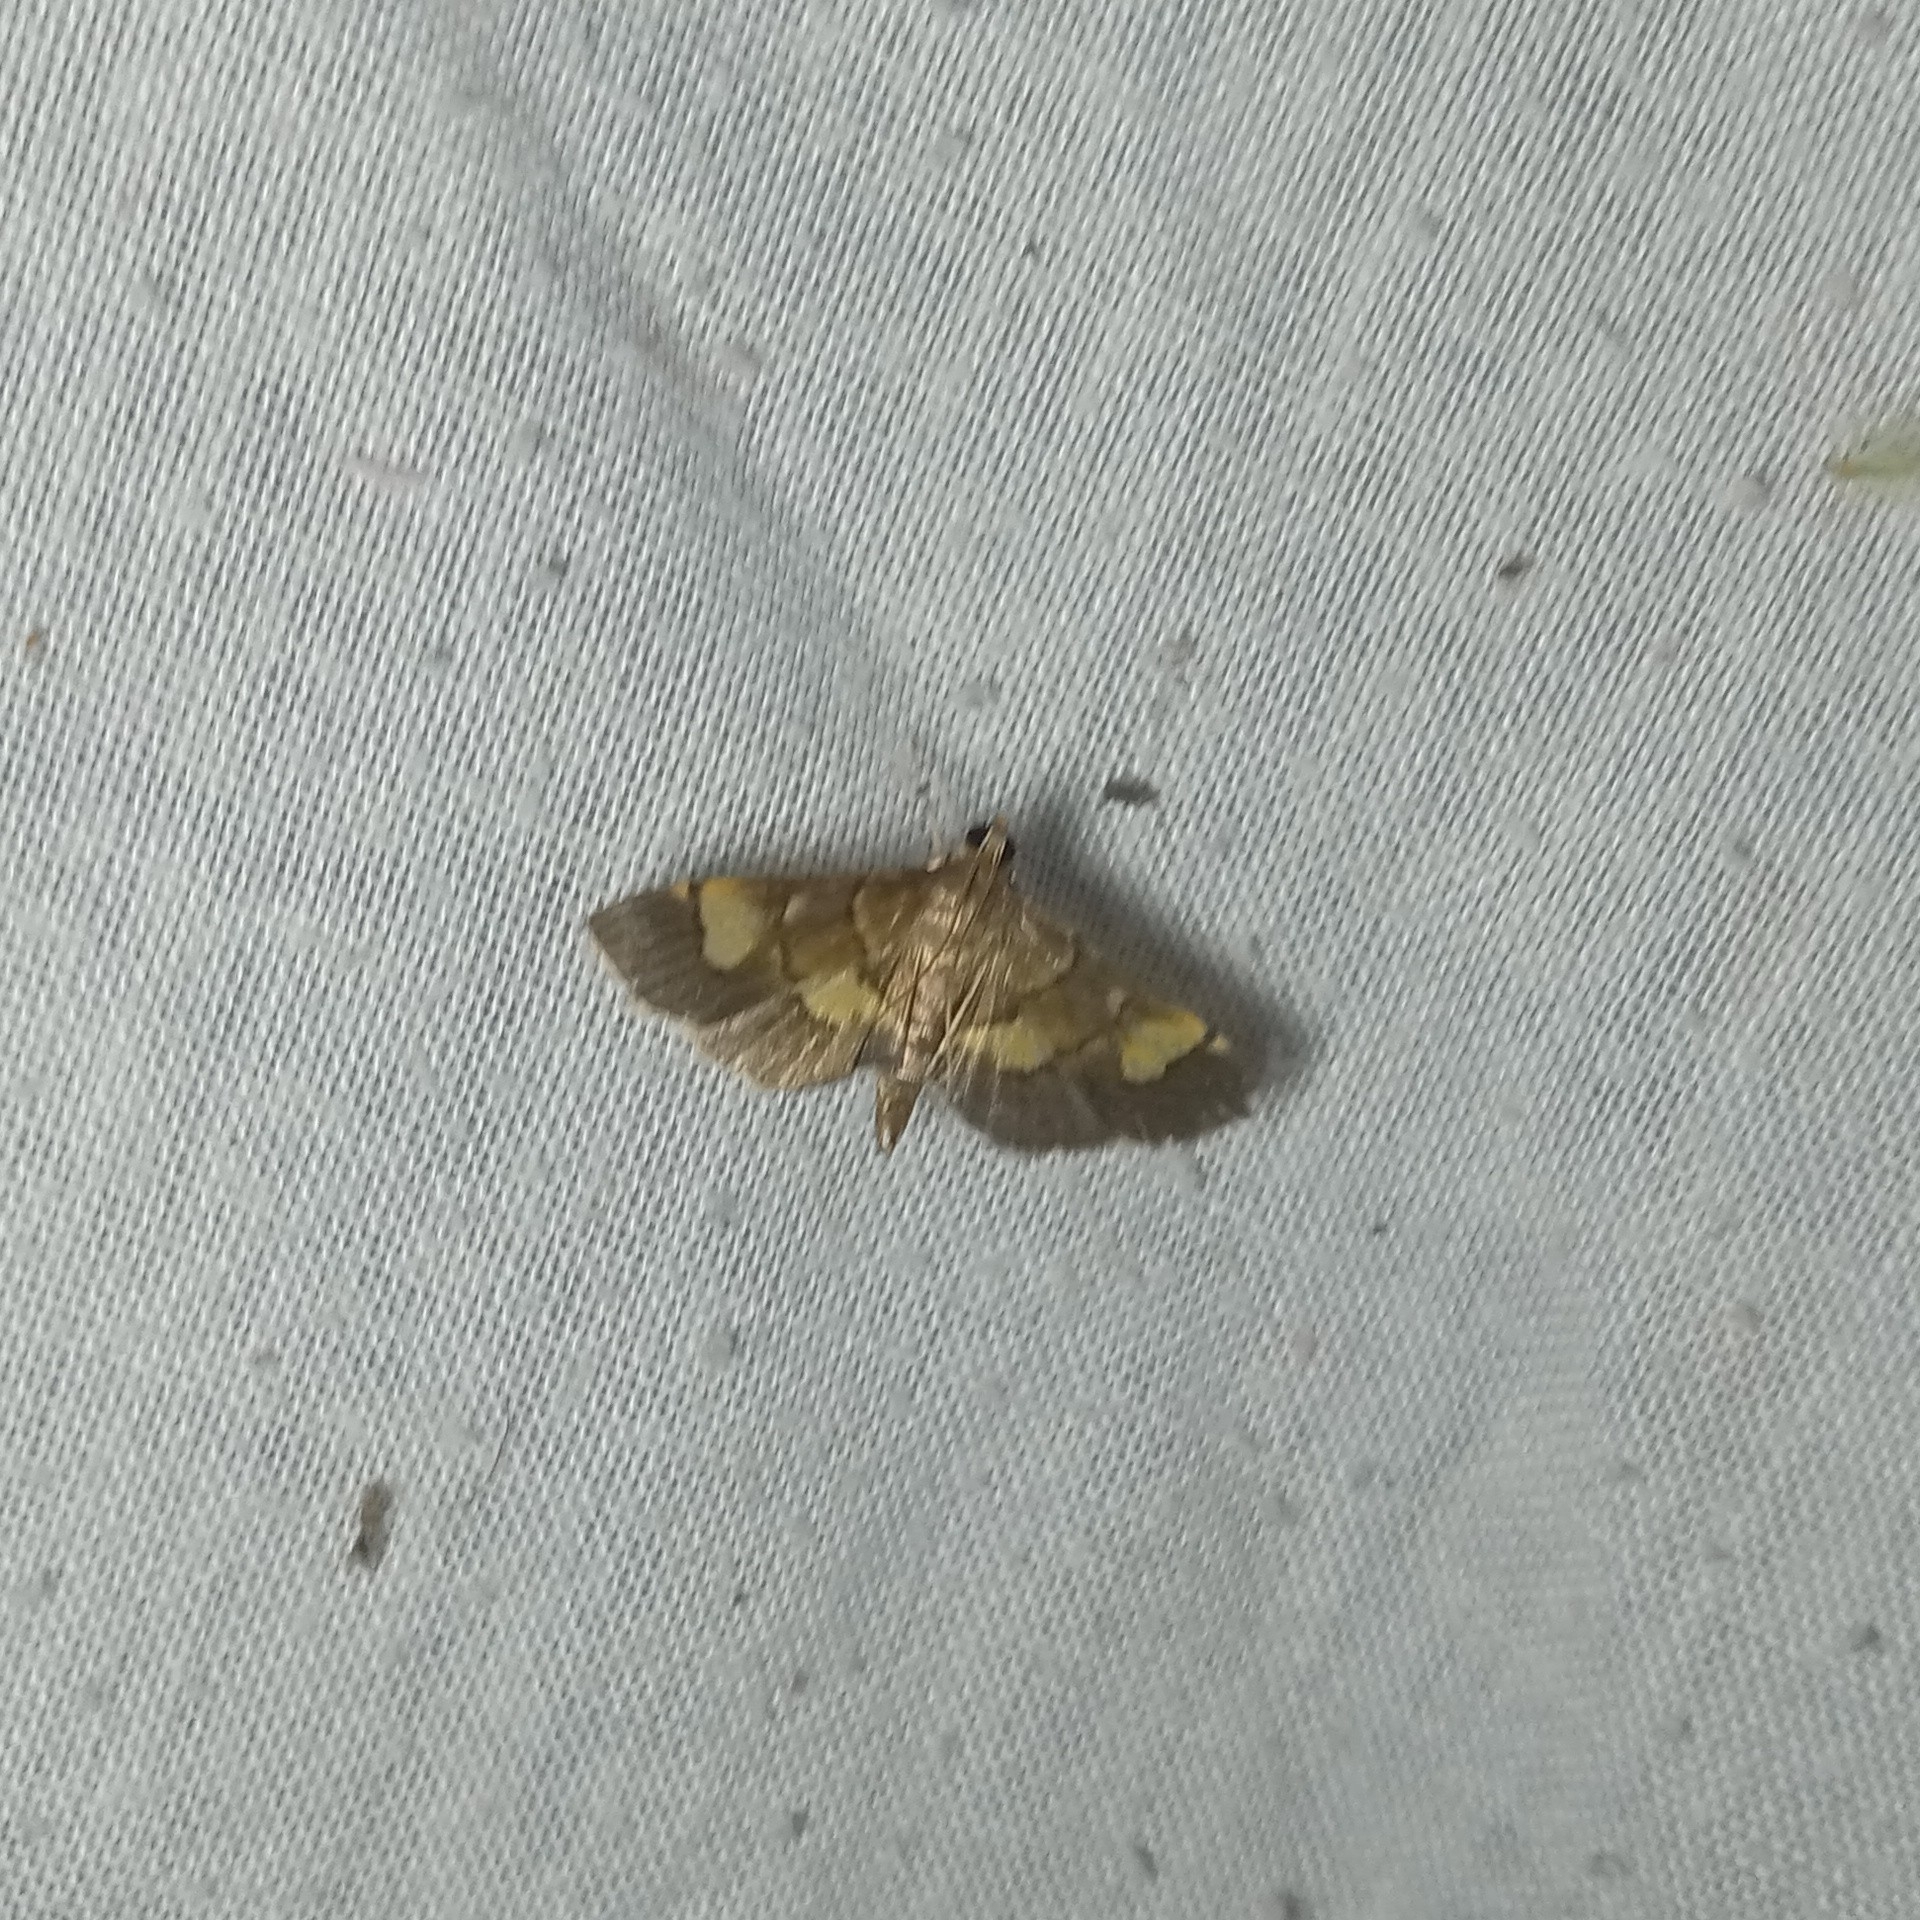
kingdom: Animalia
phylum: Arthropoda
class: Insecta
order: Lepidoptera
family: Crambidae
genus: Syngamia
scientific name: Syngamia falsidicalis
